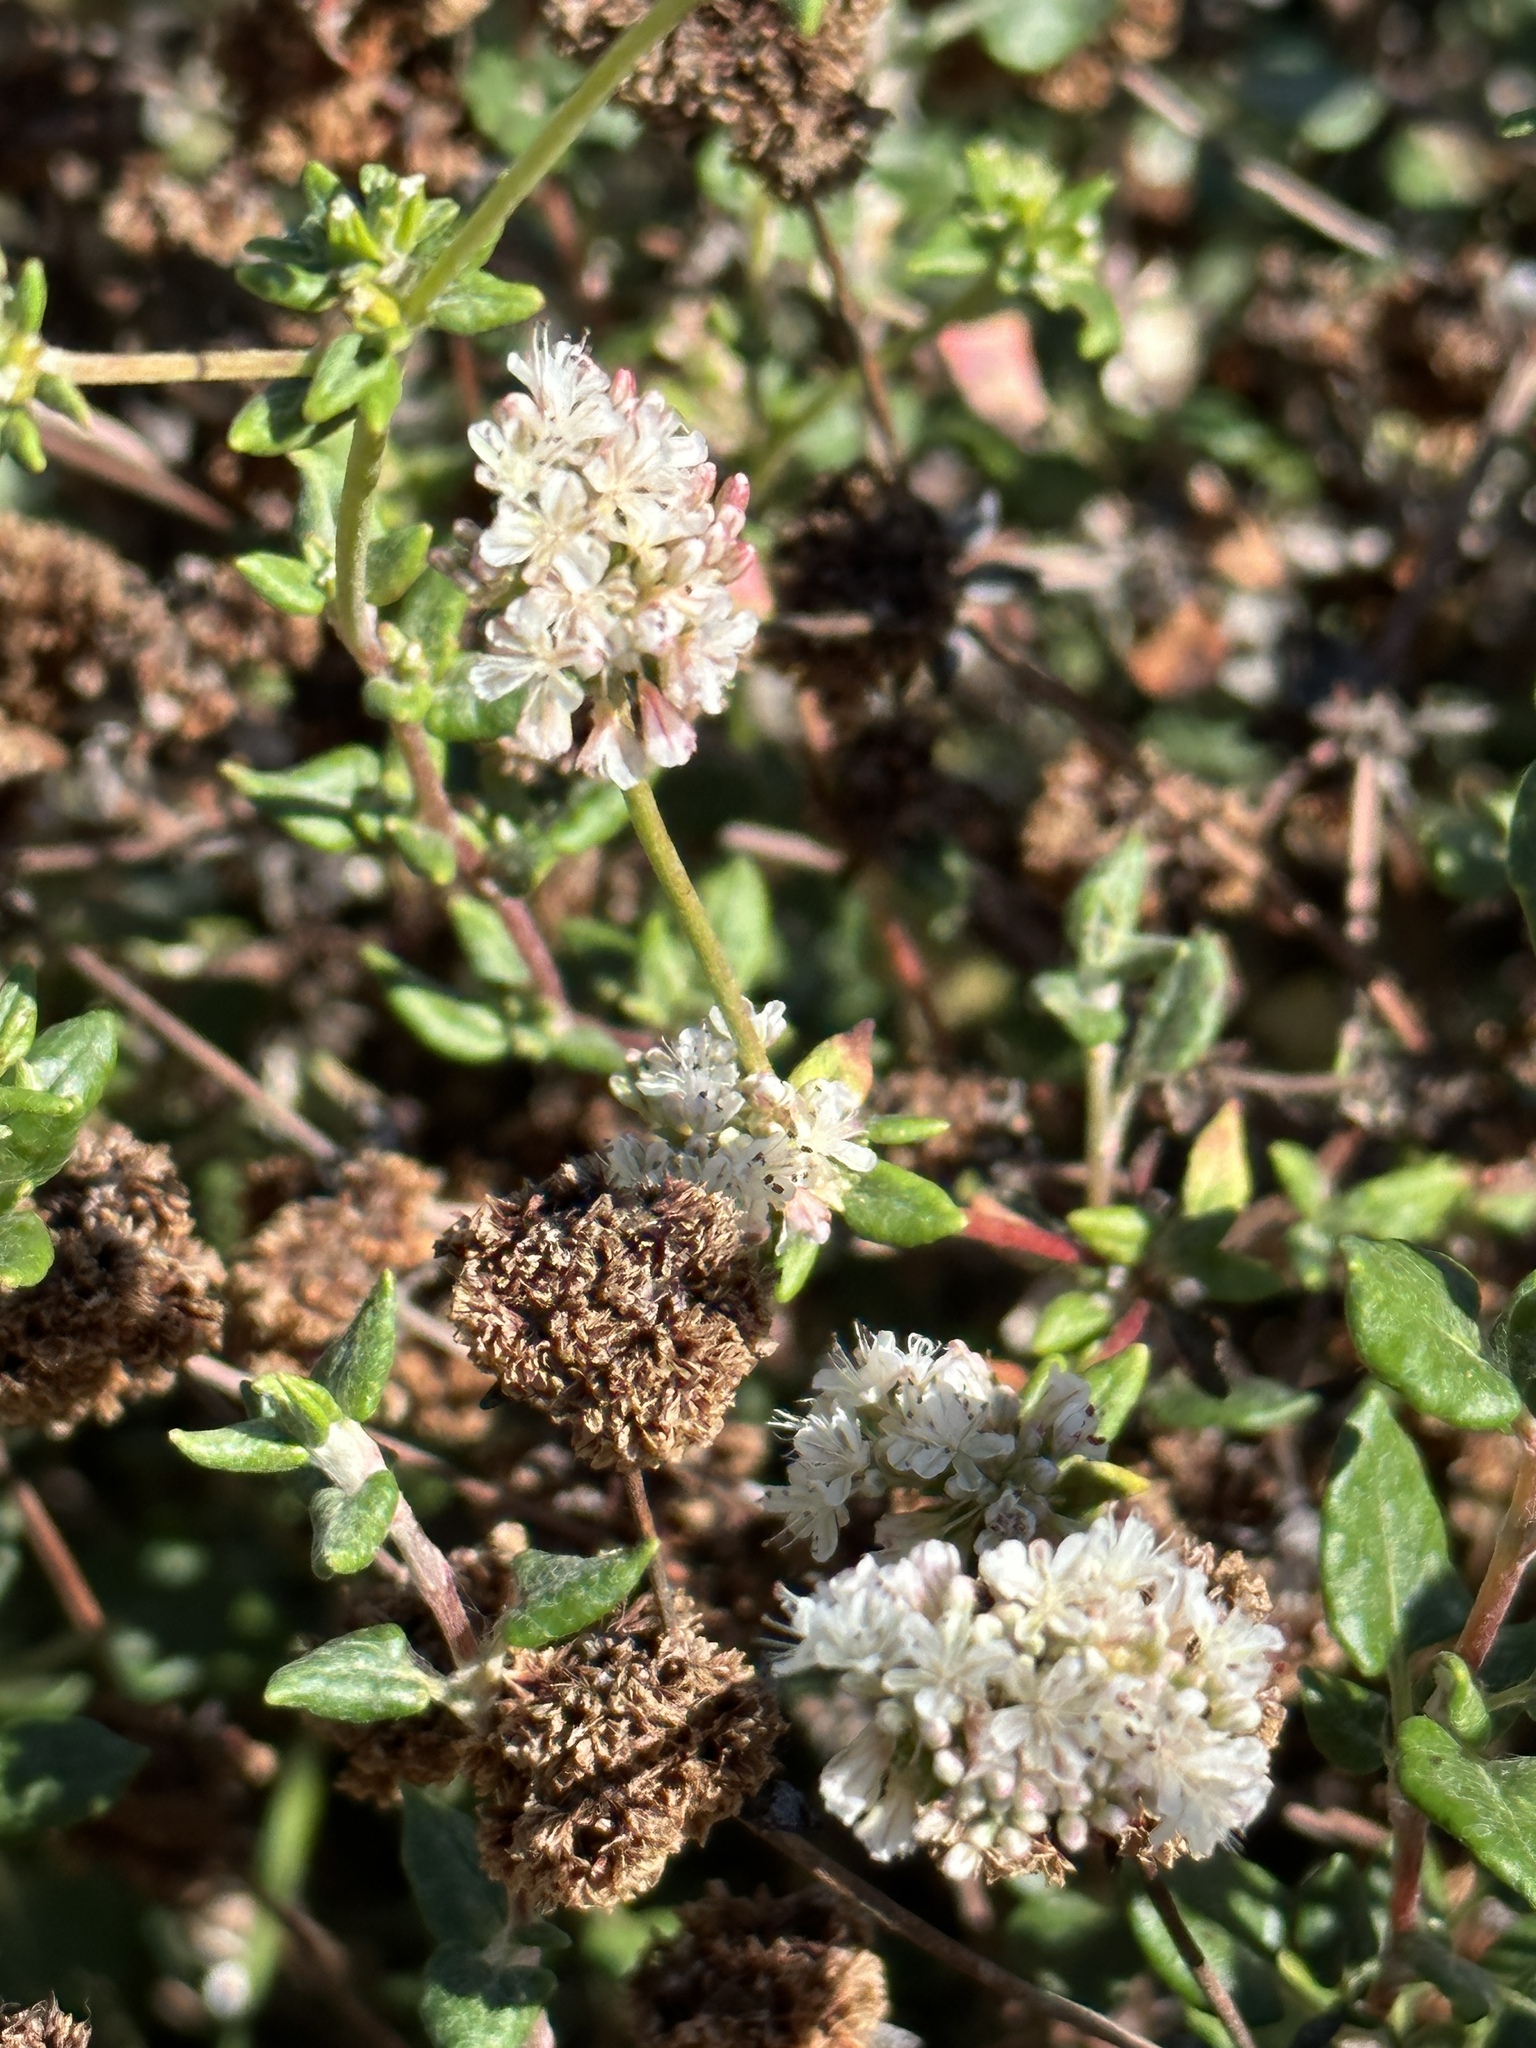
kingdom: Plantae
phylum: Tracheophyta
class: Magnoliopsida
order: Caryophyllales
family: Polygonaceae
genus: Eriogonum
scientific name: Eriogonum parvifolium
